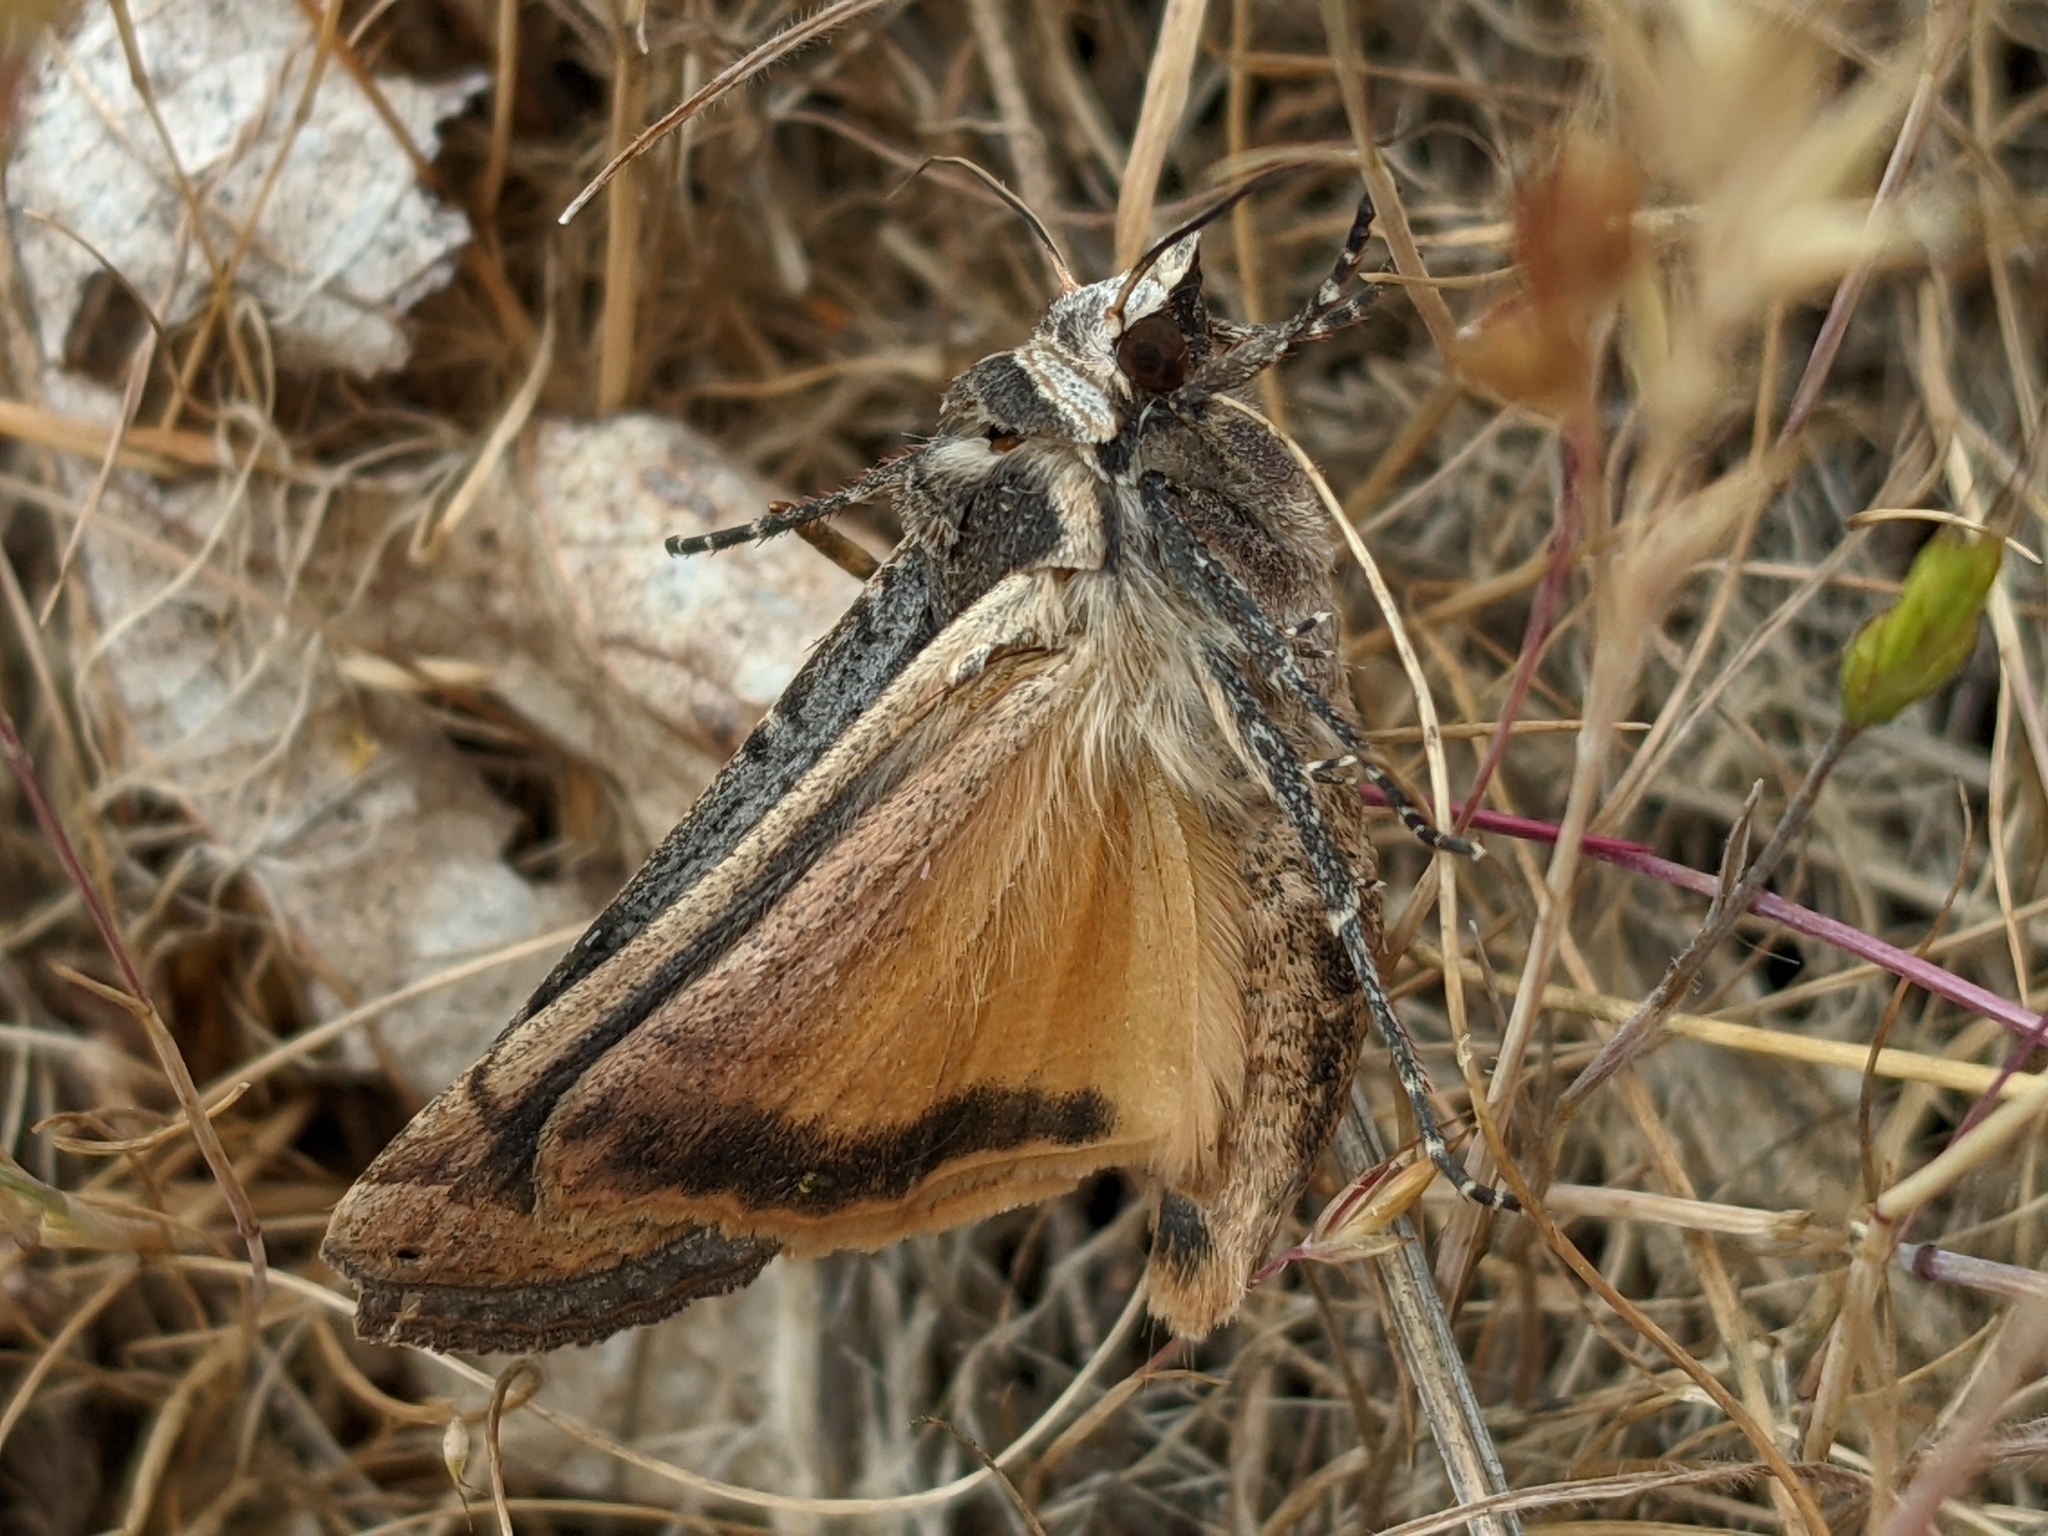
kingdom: Animalia
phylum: Arthropoda
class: Insecta
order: Lepidoptera
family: Noctuidae
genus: Noctua
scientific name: Noctua pronuba
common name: Large yellow underwing
